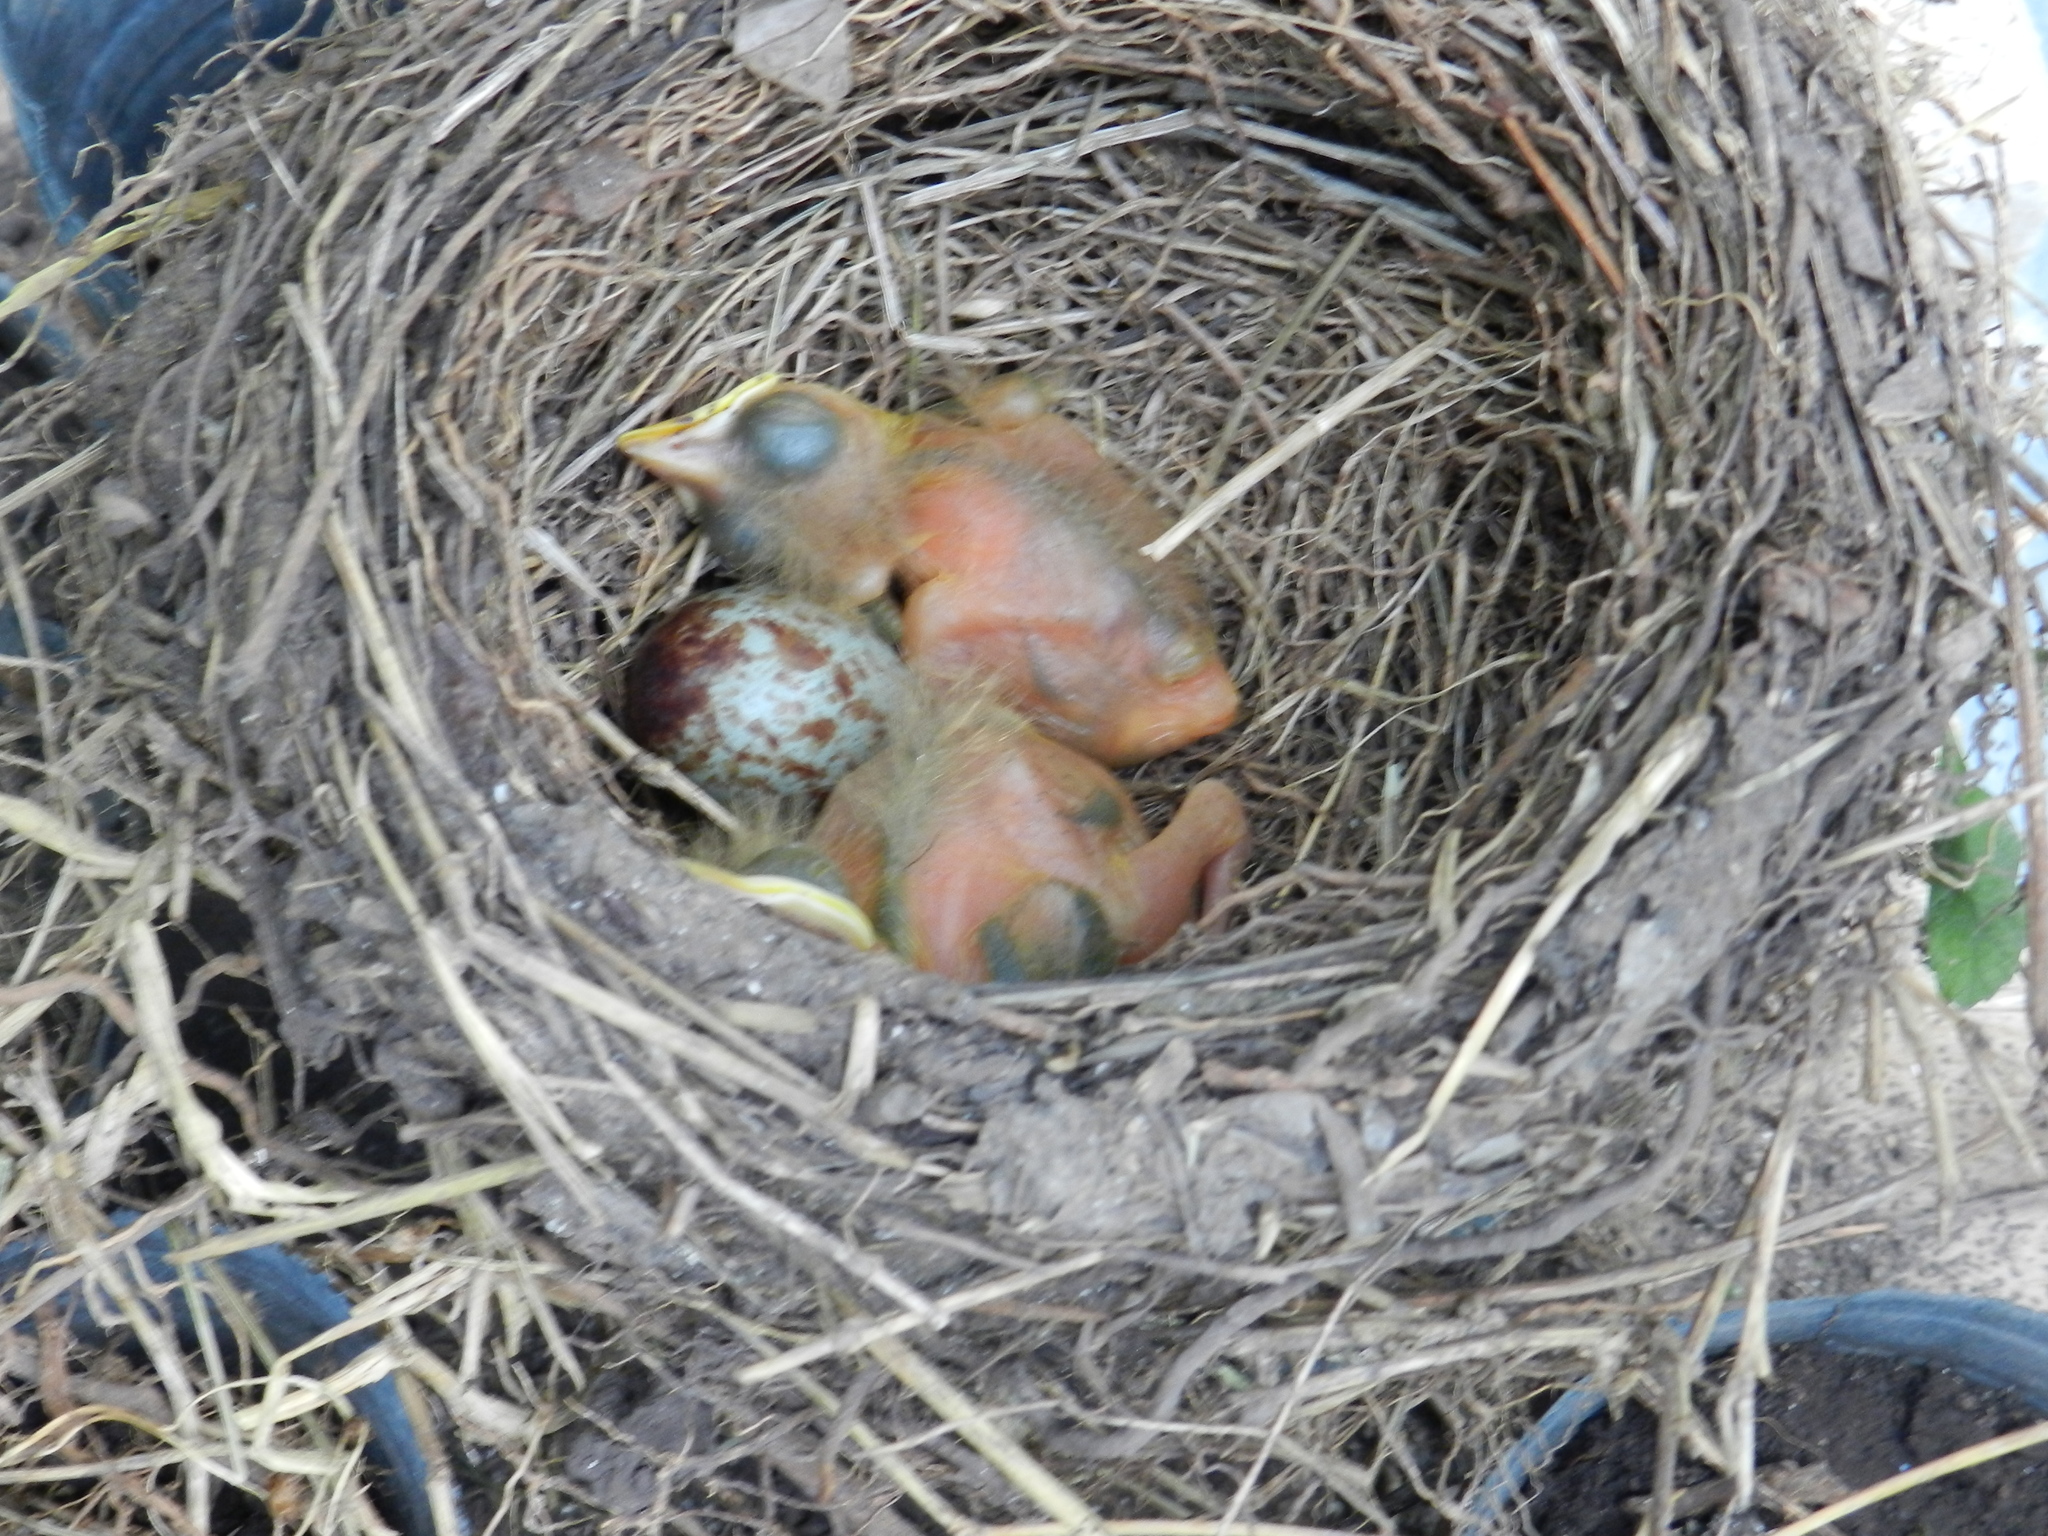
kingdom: Animalia
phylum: Chordata
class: Aves
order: Passeriformes
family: Turdidae
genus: Turdus
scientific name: Turdus rufiventris
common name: Rufous-bellied thrush
